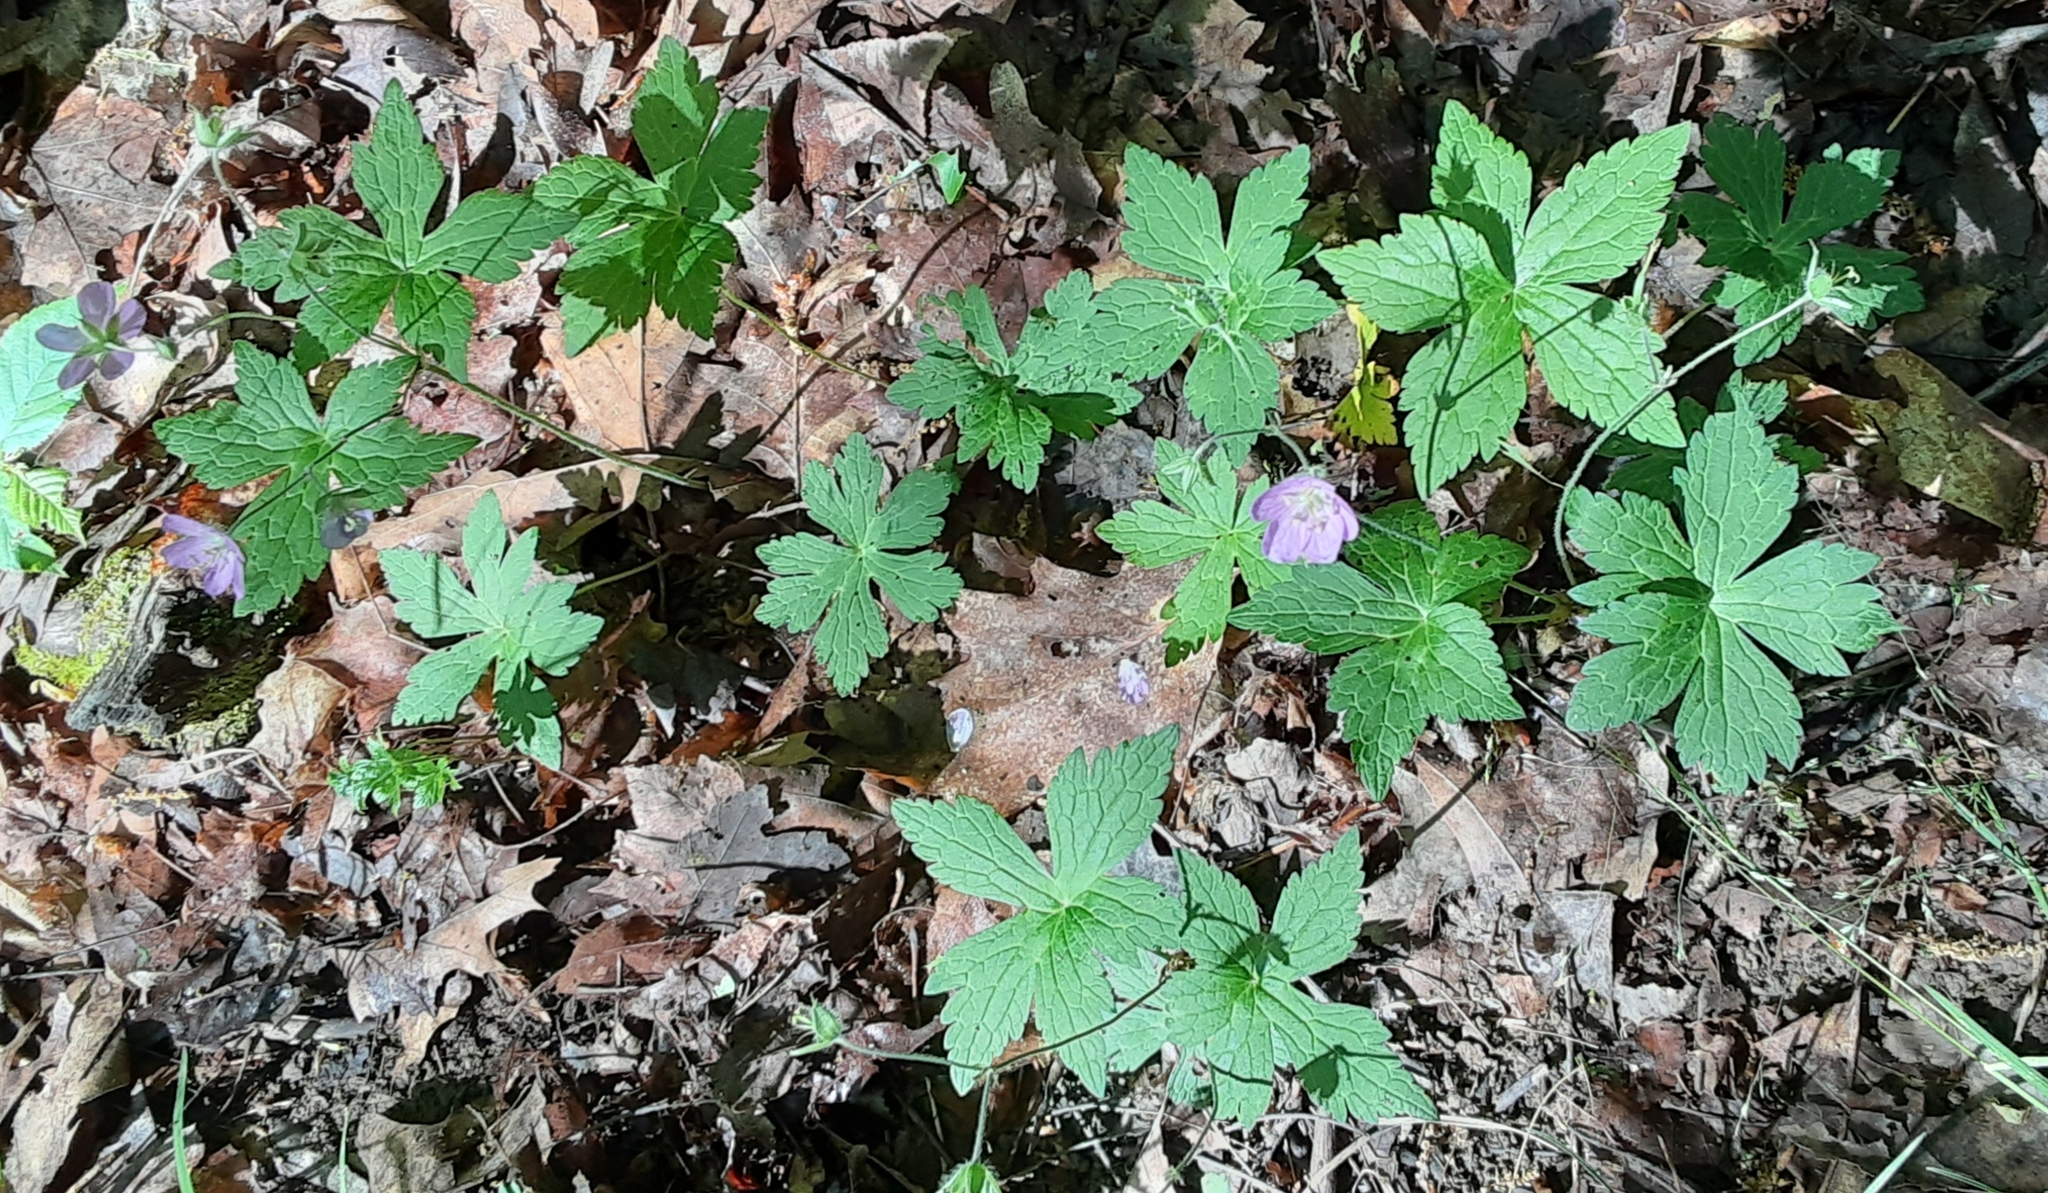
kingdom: Plantae
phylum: Tracheophyta
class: Magnoliopsida
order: Geraniales
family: Geraniaceae
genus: Geranium
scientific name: Geranium maculatum
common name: Spotted geranium
